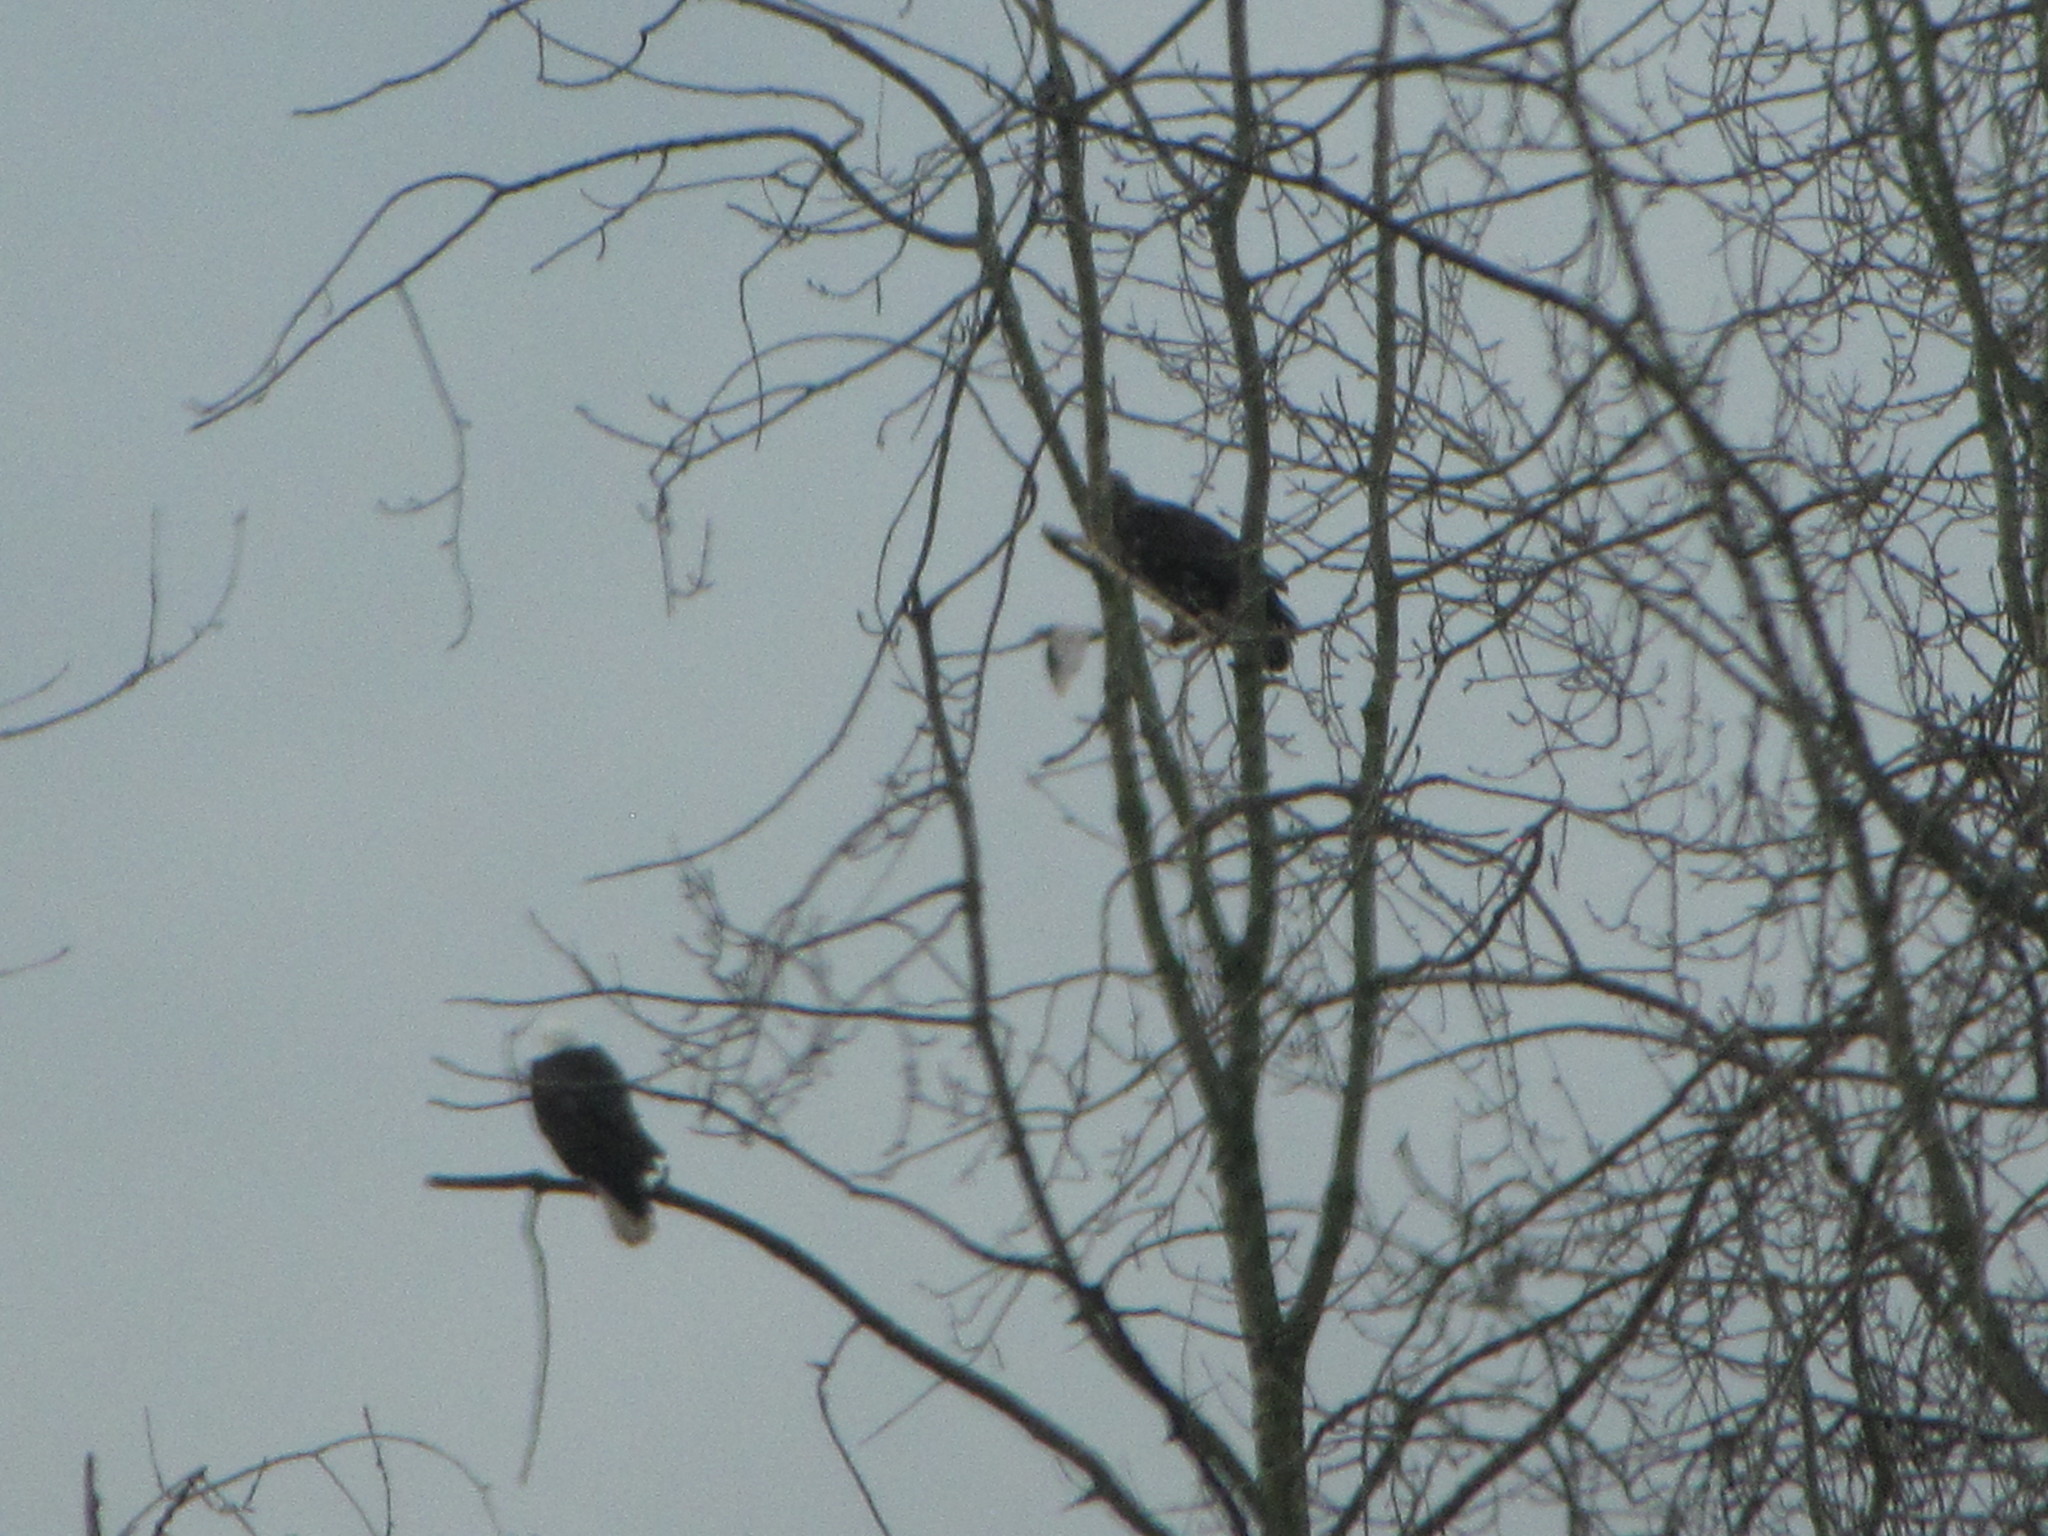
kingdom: Animalia
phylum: Chordata
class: Aves
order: Accipitriformes
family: Accipitridae
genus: Haliaeetus
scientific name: Haliaeetus leucocephalus
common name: Bald eagle
